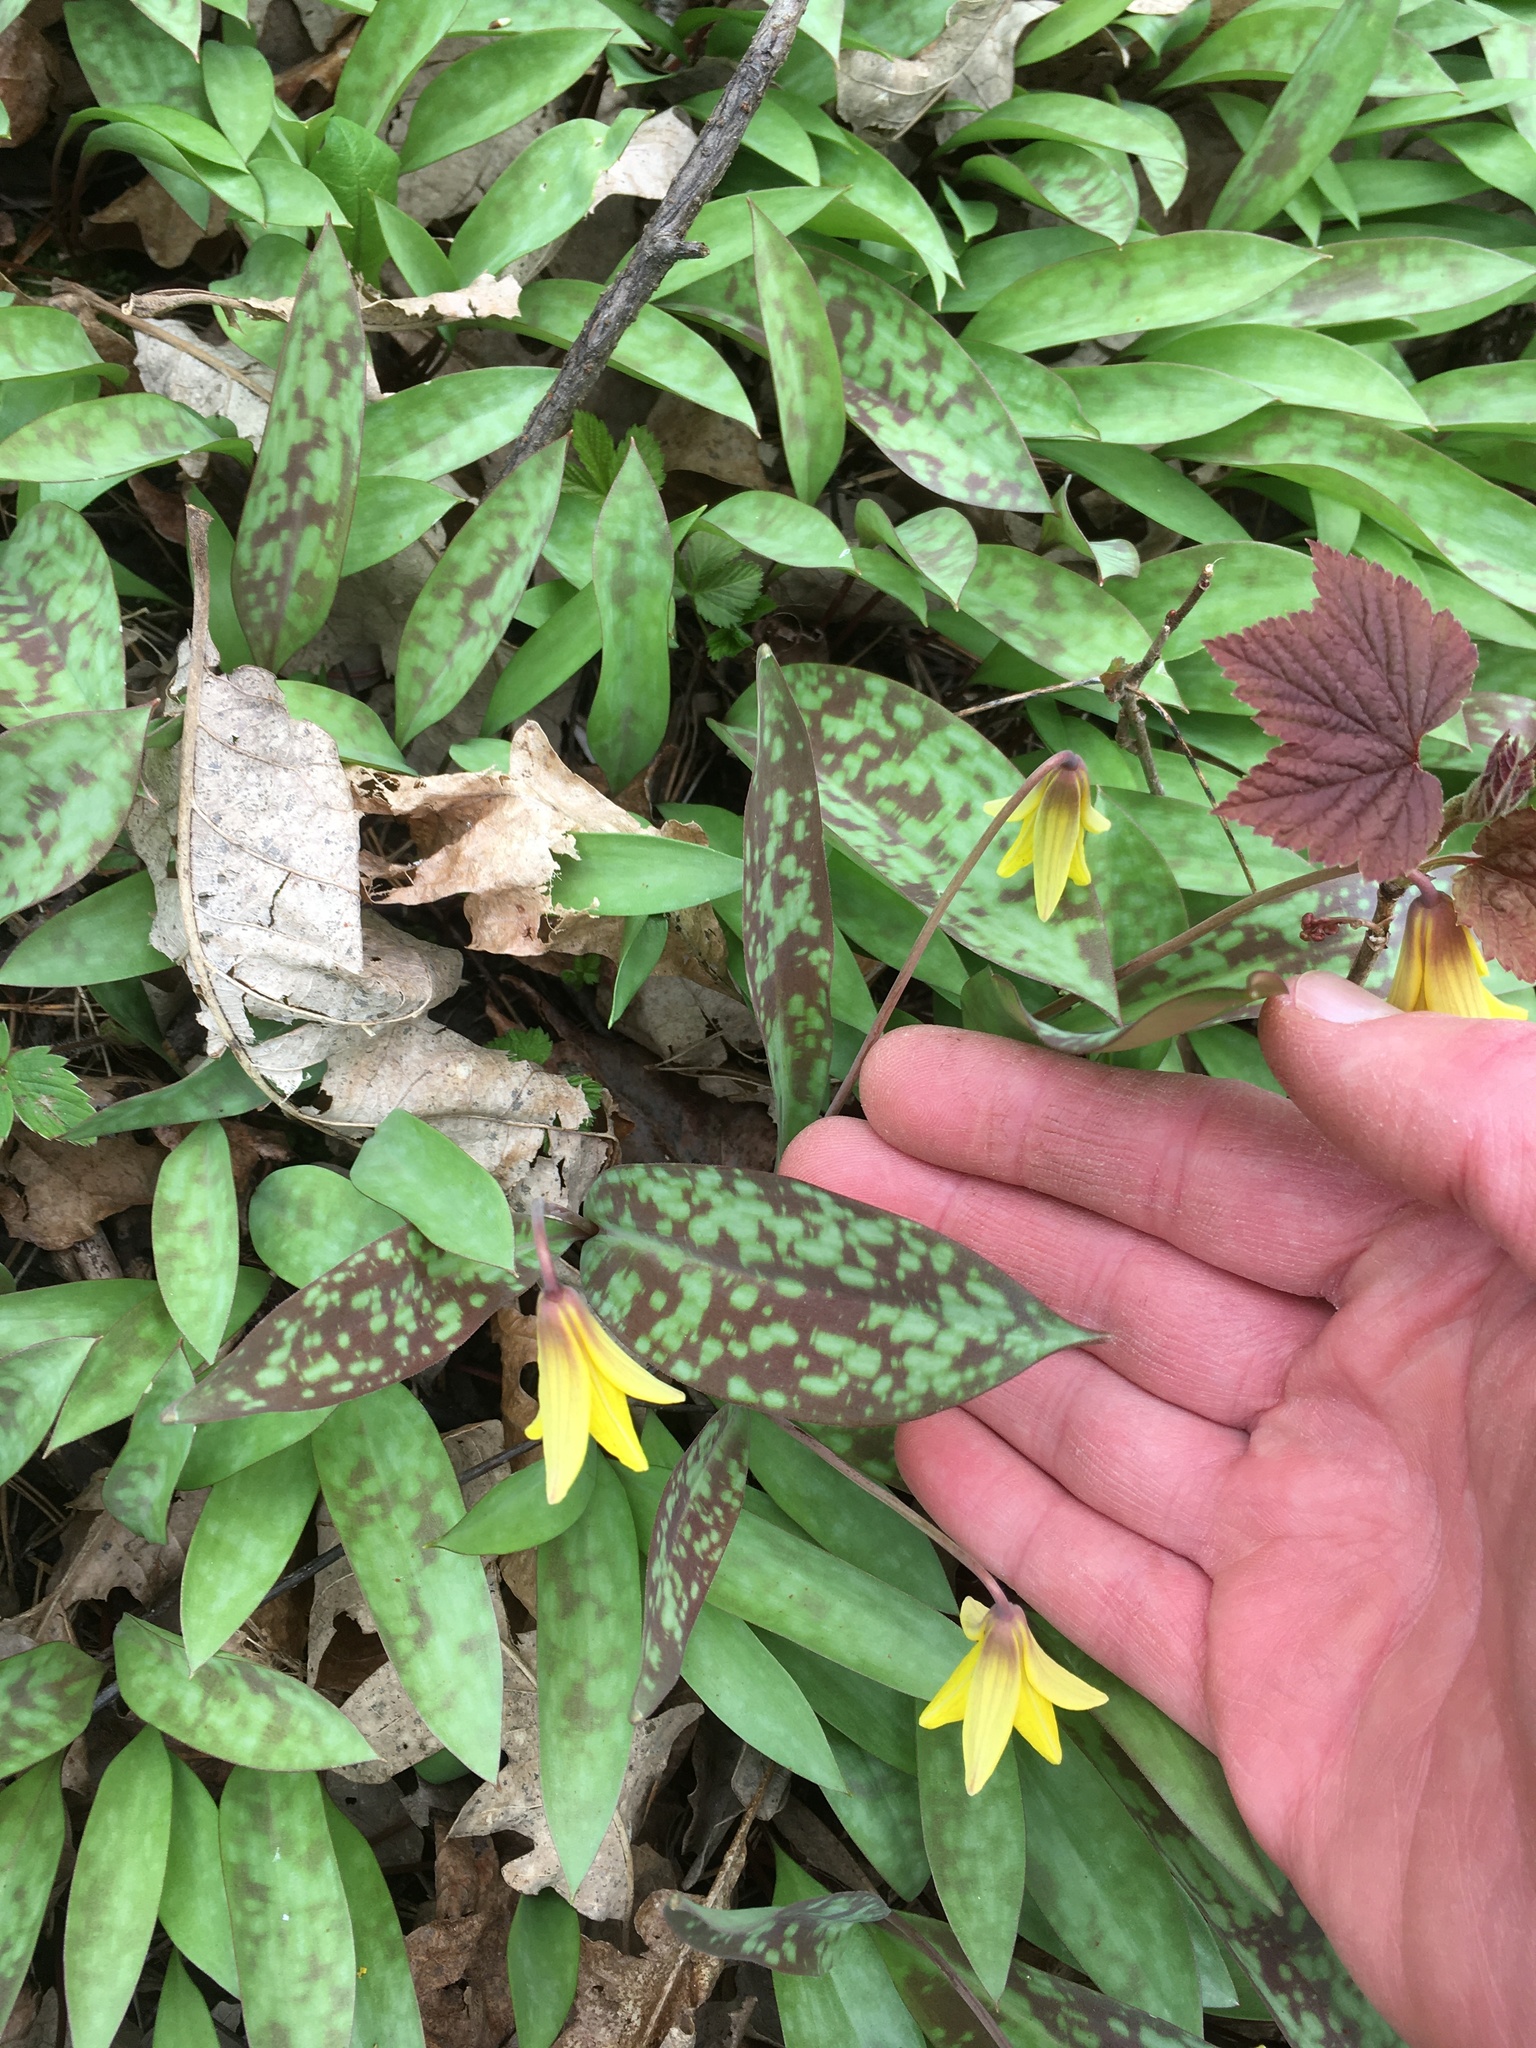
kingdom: Plantae
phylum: Tracheophyta
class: Liliopsida
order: Liliales
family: Liliaceae
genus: Erythronium
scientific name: Erythronium americanum
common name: Yellow adder's-tongue
